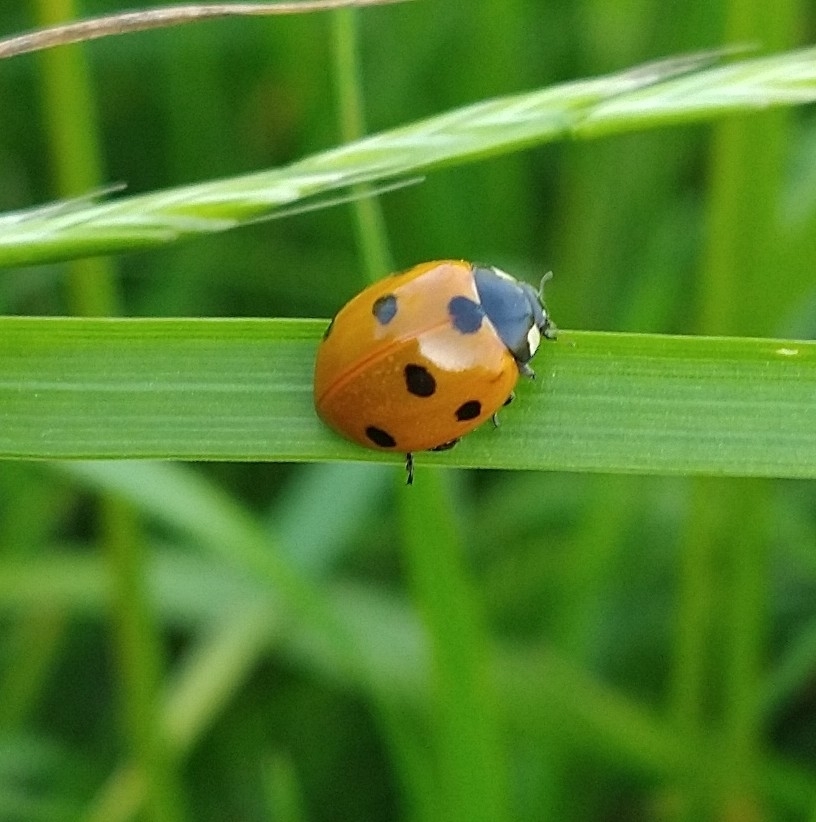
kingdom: Animalia
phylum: Arthropoda
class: Insecta
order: Coleoptera
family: Coccinellidae
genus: Coccinella
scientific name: Coccinella septempunctata
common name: Sevenspotted lady beetle
